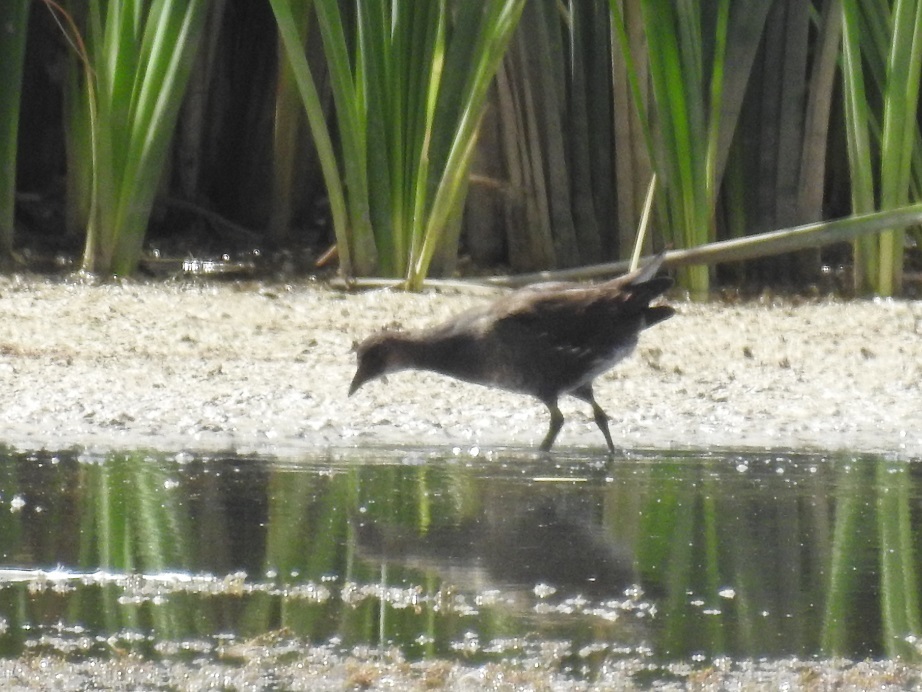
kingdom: Animalia
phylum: Chordata
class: Aves
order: Gruiformes
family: Rallidae
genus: Gallinula
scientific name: Gallinula chloropus
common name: Common moorhen
